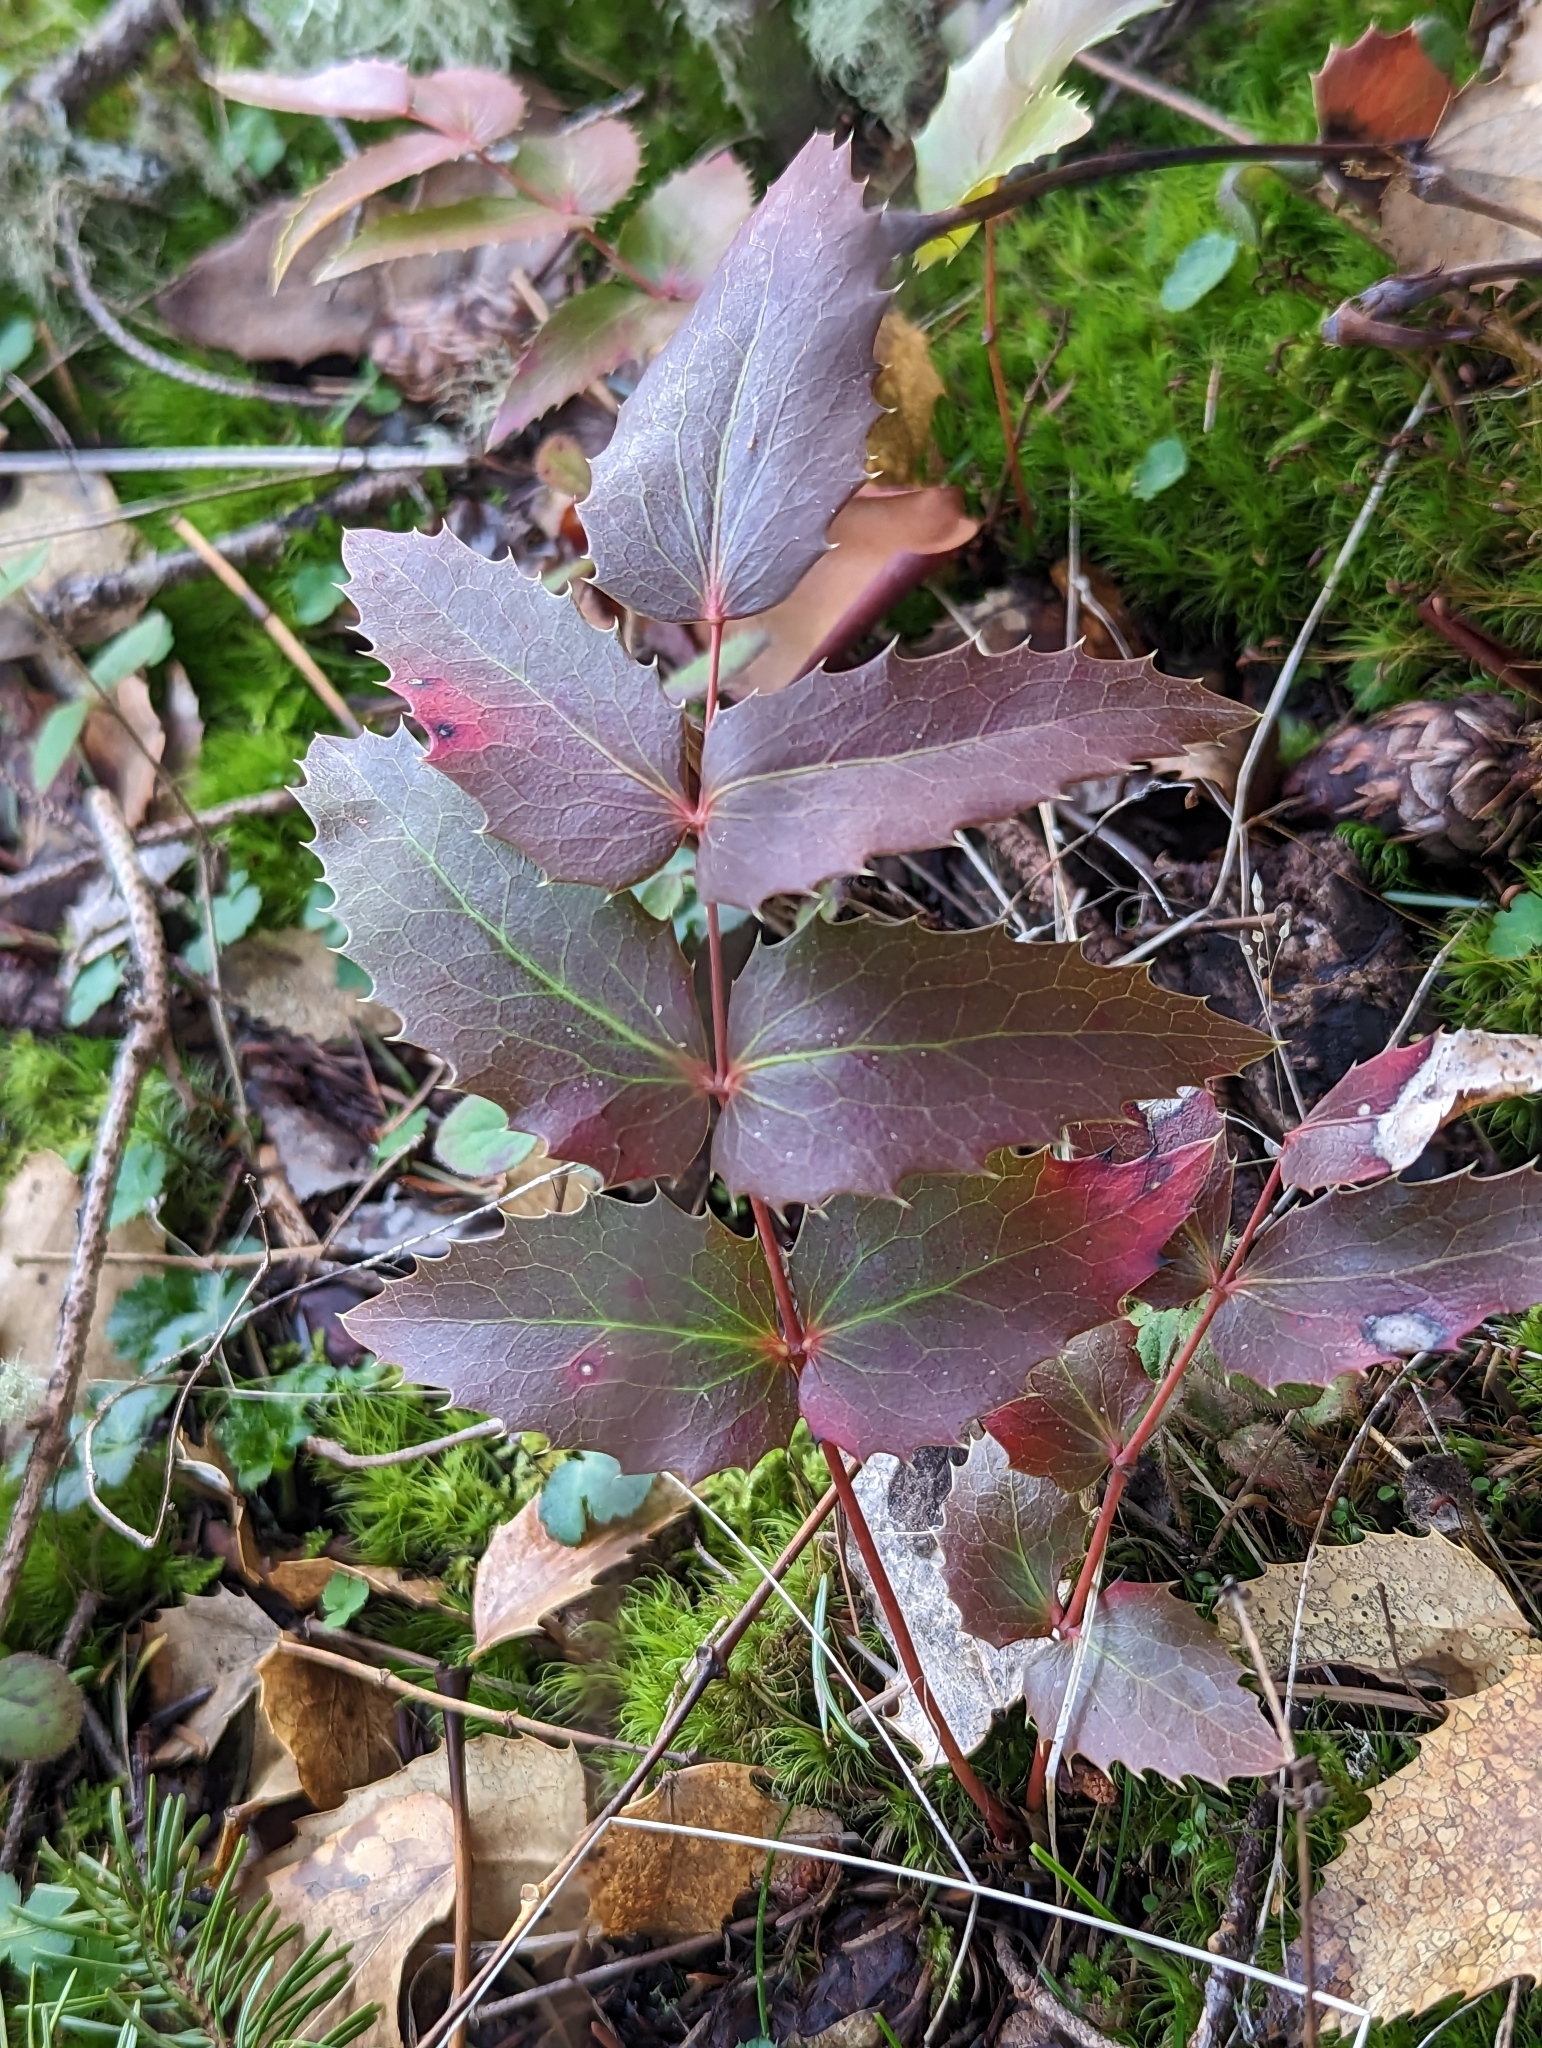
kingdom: Plantae
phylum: Tracheophyta
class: Magnoliopsida
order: Ranunculales
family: Berberidaceae
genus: Mahonia
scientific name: Mahonia nervosa
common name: Cascade oregon-grape
